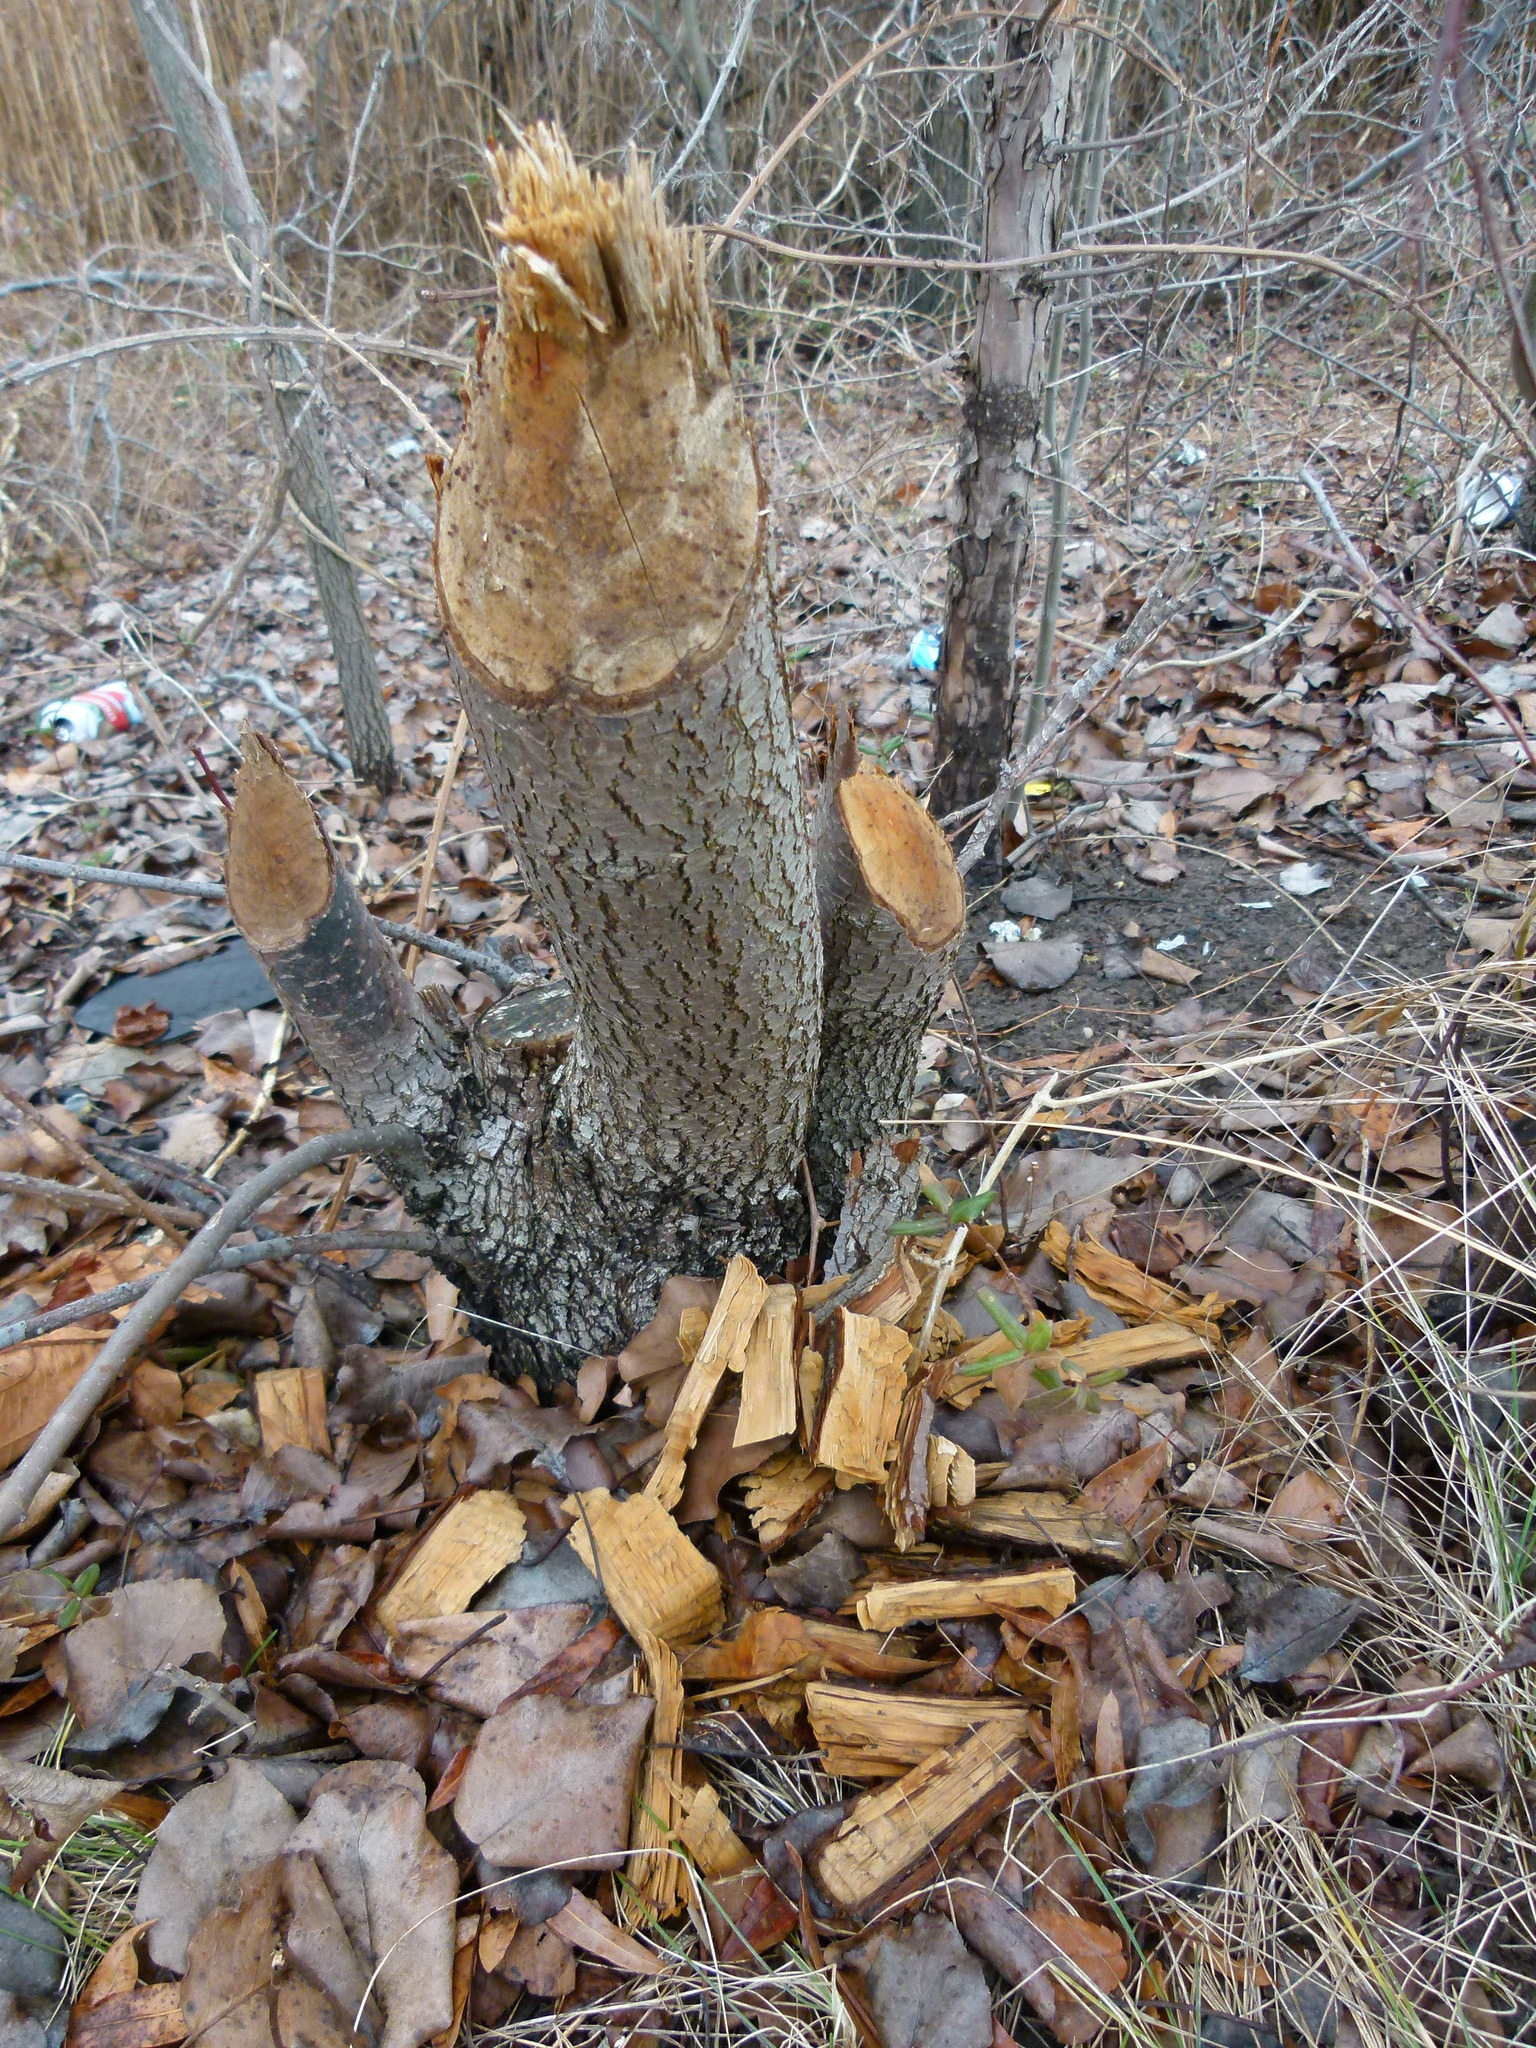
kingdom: Animalia
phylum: Chordata
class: Mammalia
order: Rodentia
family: Castoridae
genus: Castor
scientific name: Castor canadensis
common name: American beaver
